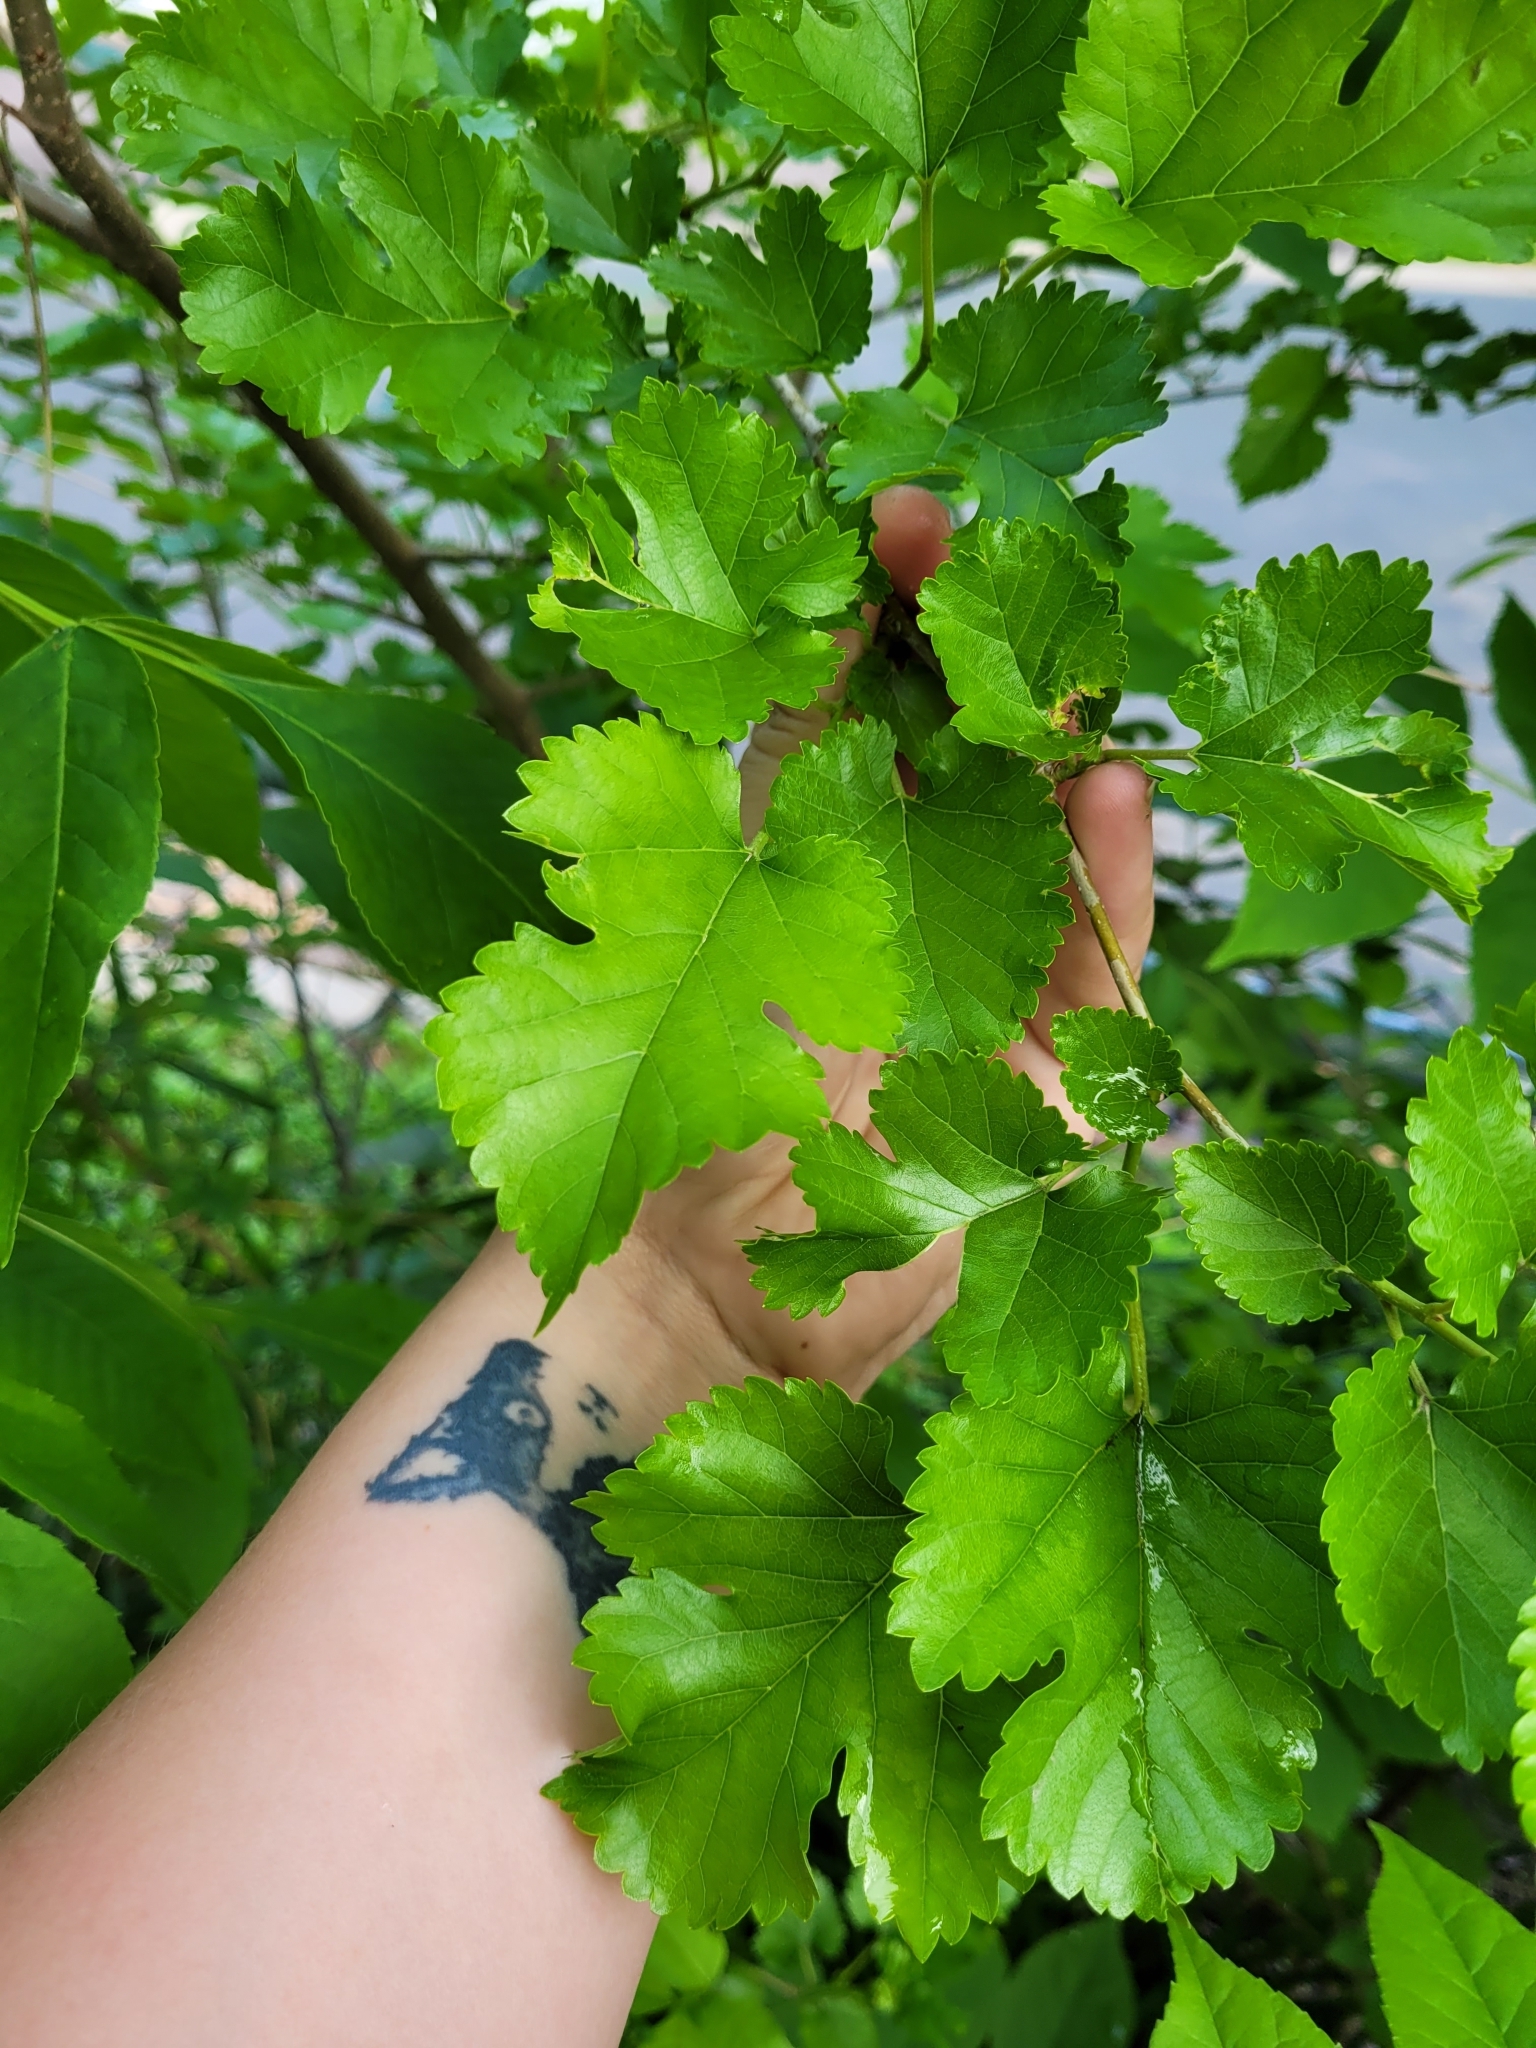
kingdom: Plantae
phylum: Tracheophyta
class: Magnoliopsida
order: Rosales
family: Moraceae
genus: Morus
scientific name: Morus alba
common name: White mulberry
